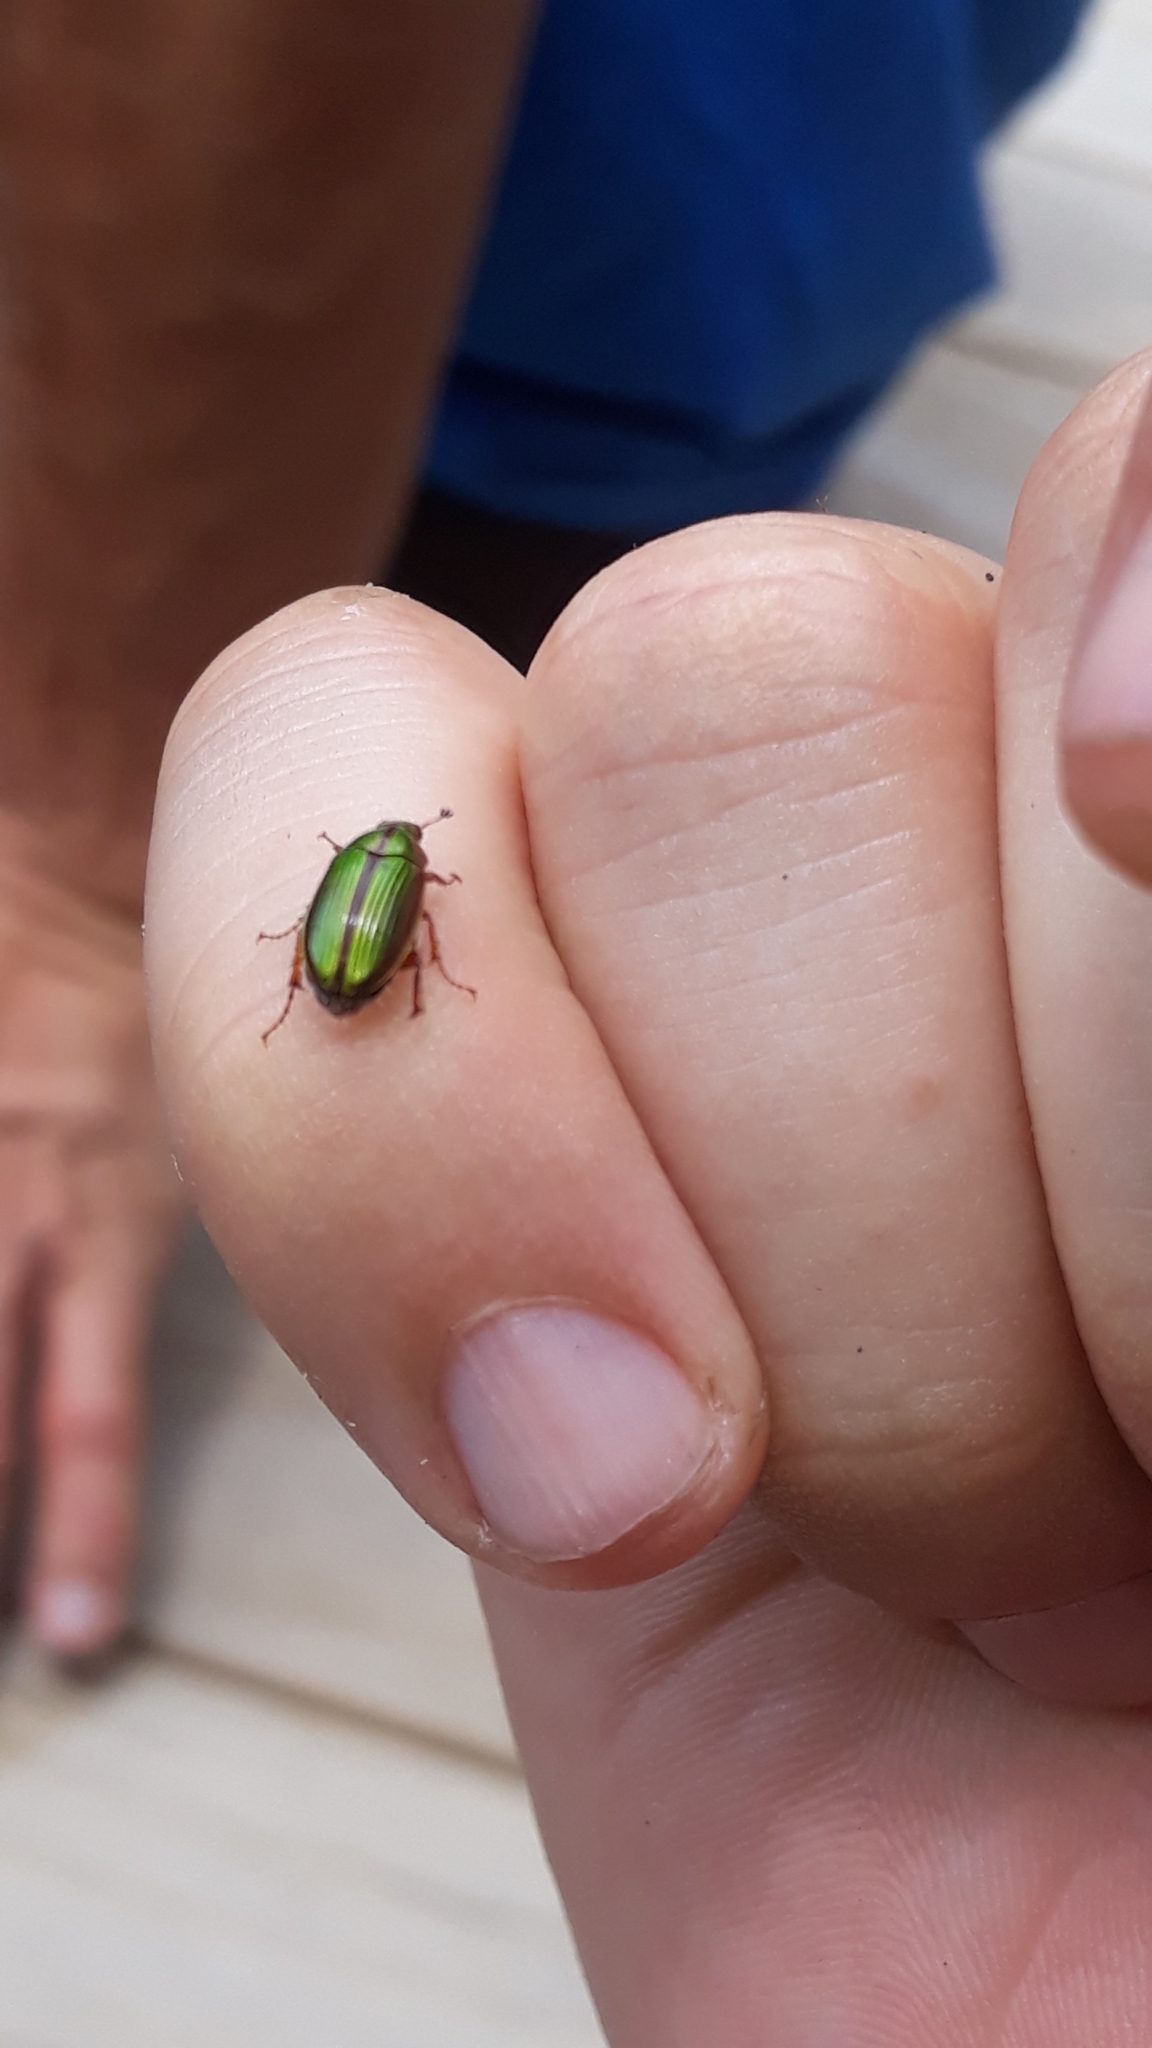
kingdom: Animalia
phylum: Arthropoda
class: Insecta
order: Coleoptera
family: Scarabaeidae
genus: Pyronota
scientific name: Pyronota festiva
